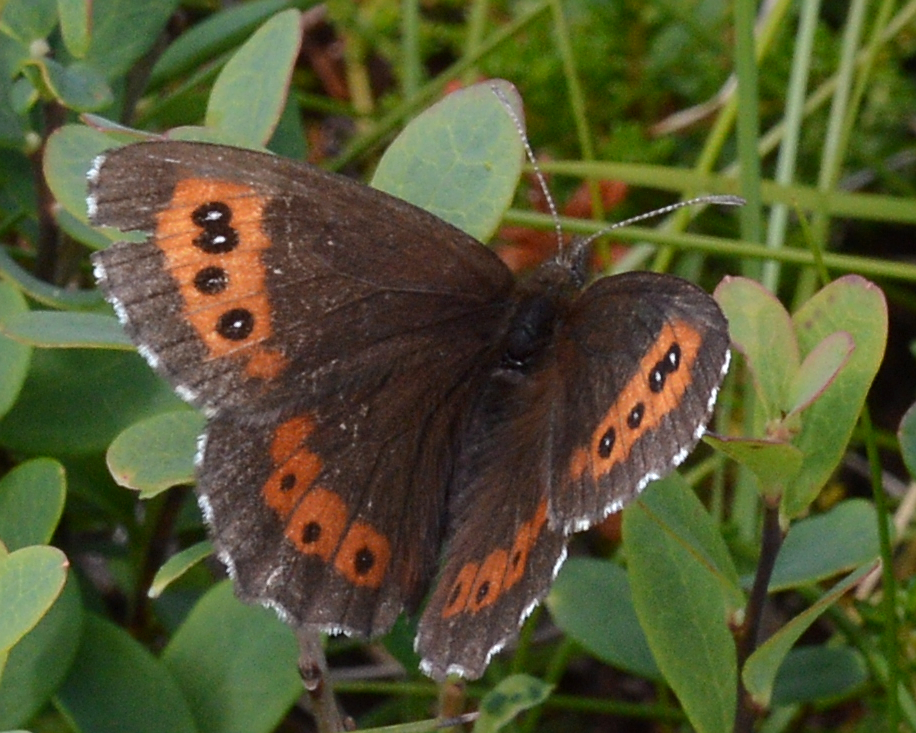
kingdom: Animalia
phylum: Arthropoda
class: Insecta
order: Lepidoptera
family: Nymphalidae
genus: Erebia
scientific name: Erebia ligea
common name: Arran brown
